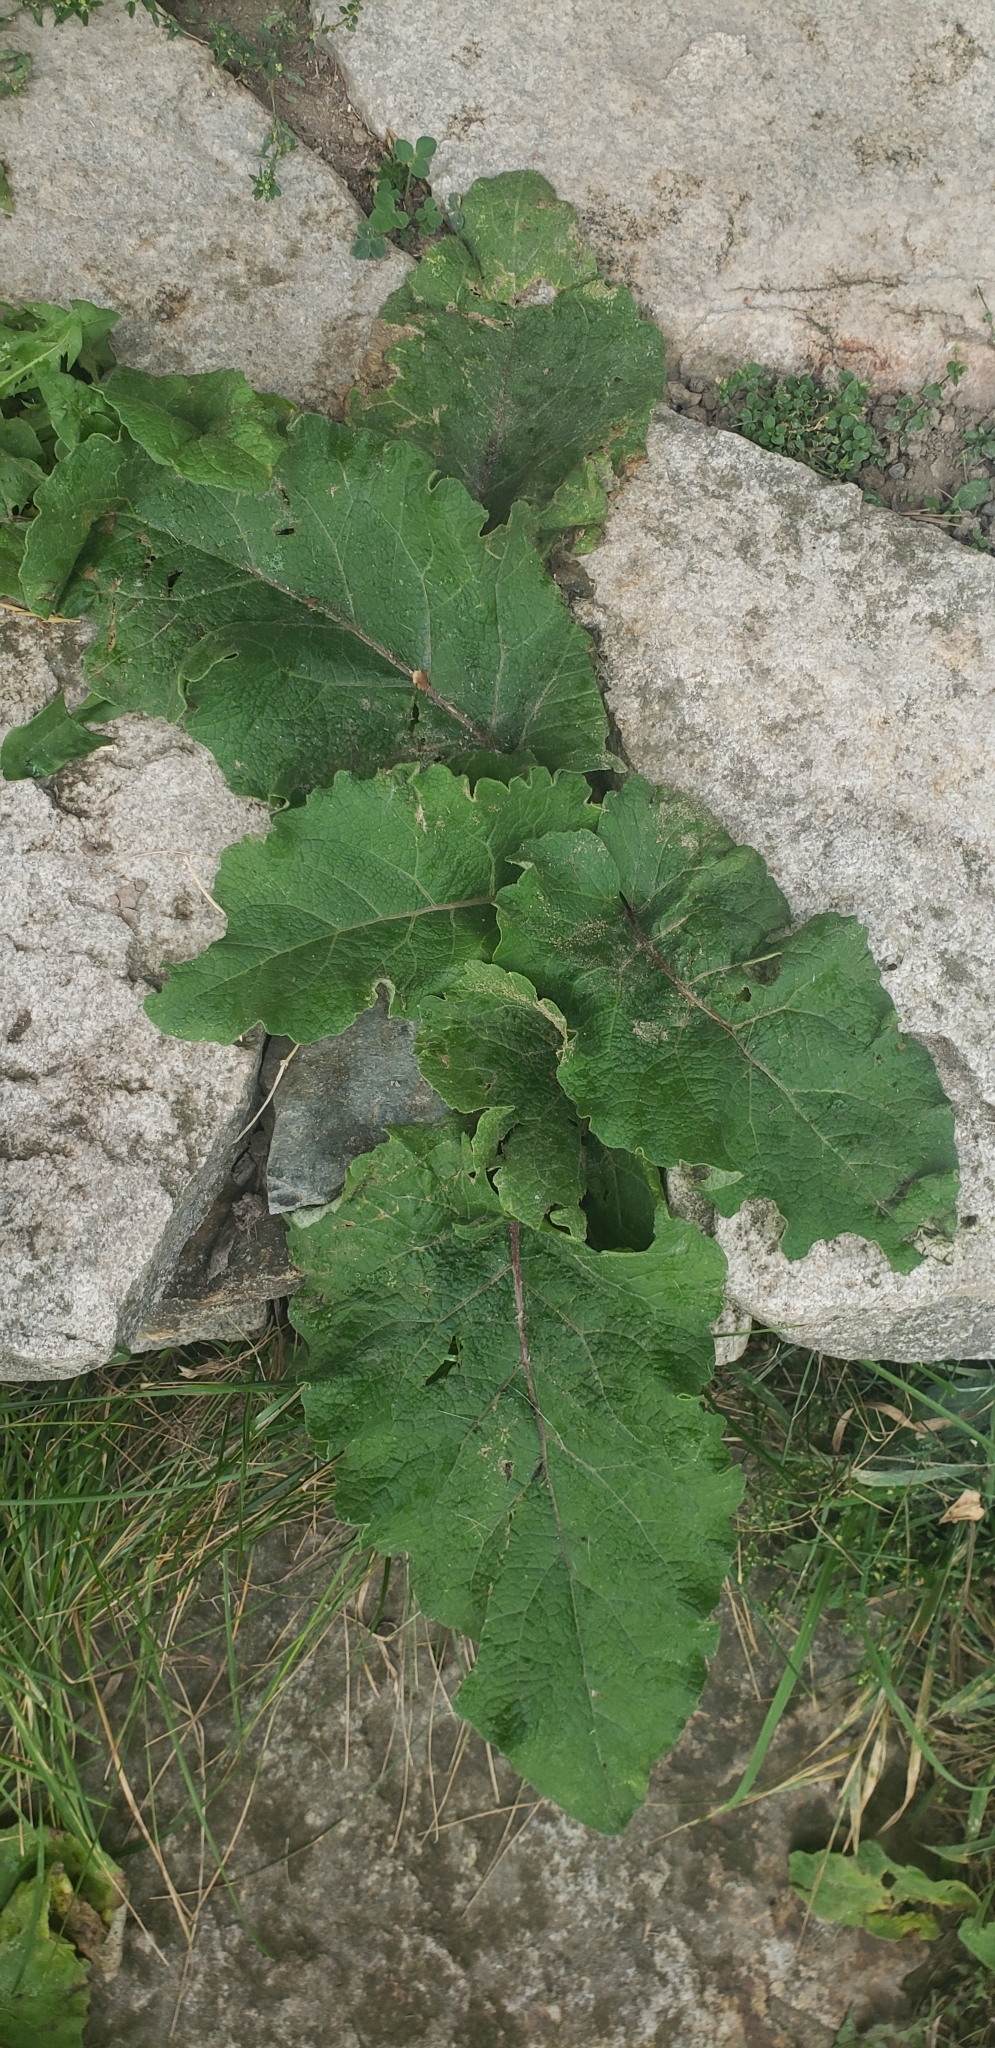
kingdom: Plantae
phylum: Tracheophyta
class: Magnoliopsida
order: Asterales
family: Asteraceae
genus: Arctium
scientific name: Arctium
